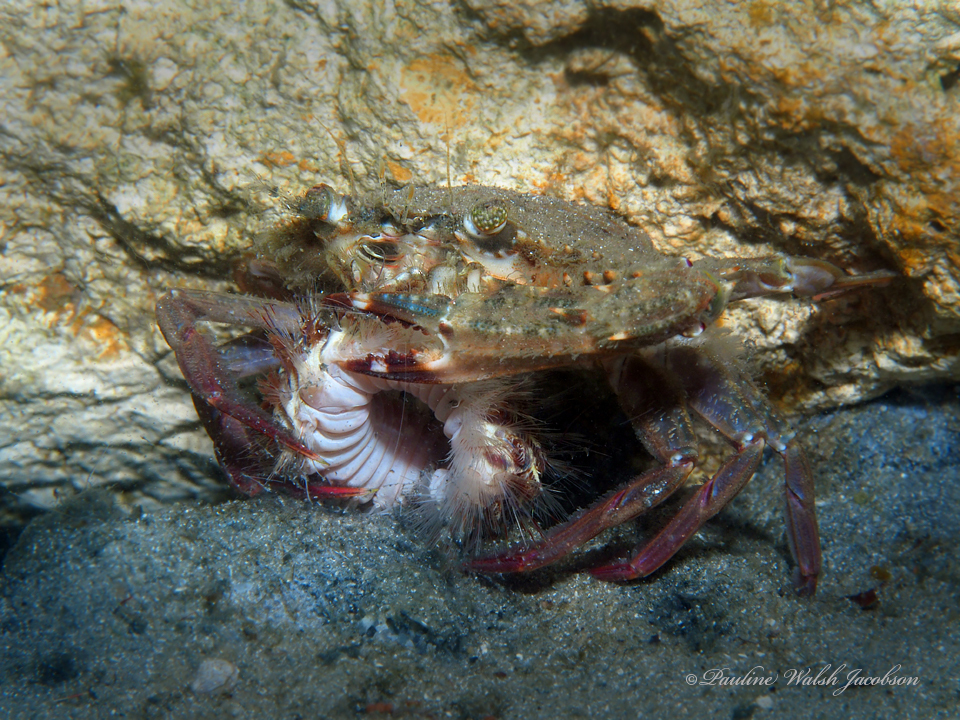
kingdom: Animalia
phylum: Arthropoda
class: Malacostraca
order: Decapoda
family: Portunidae
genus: Achelous
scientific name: Achelous spinimanus
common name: Spiny-handed portunus
